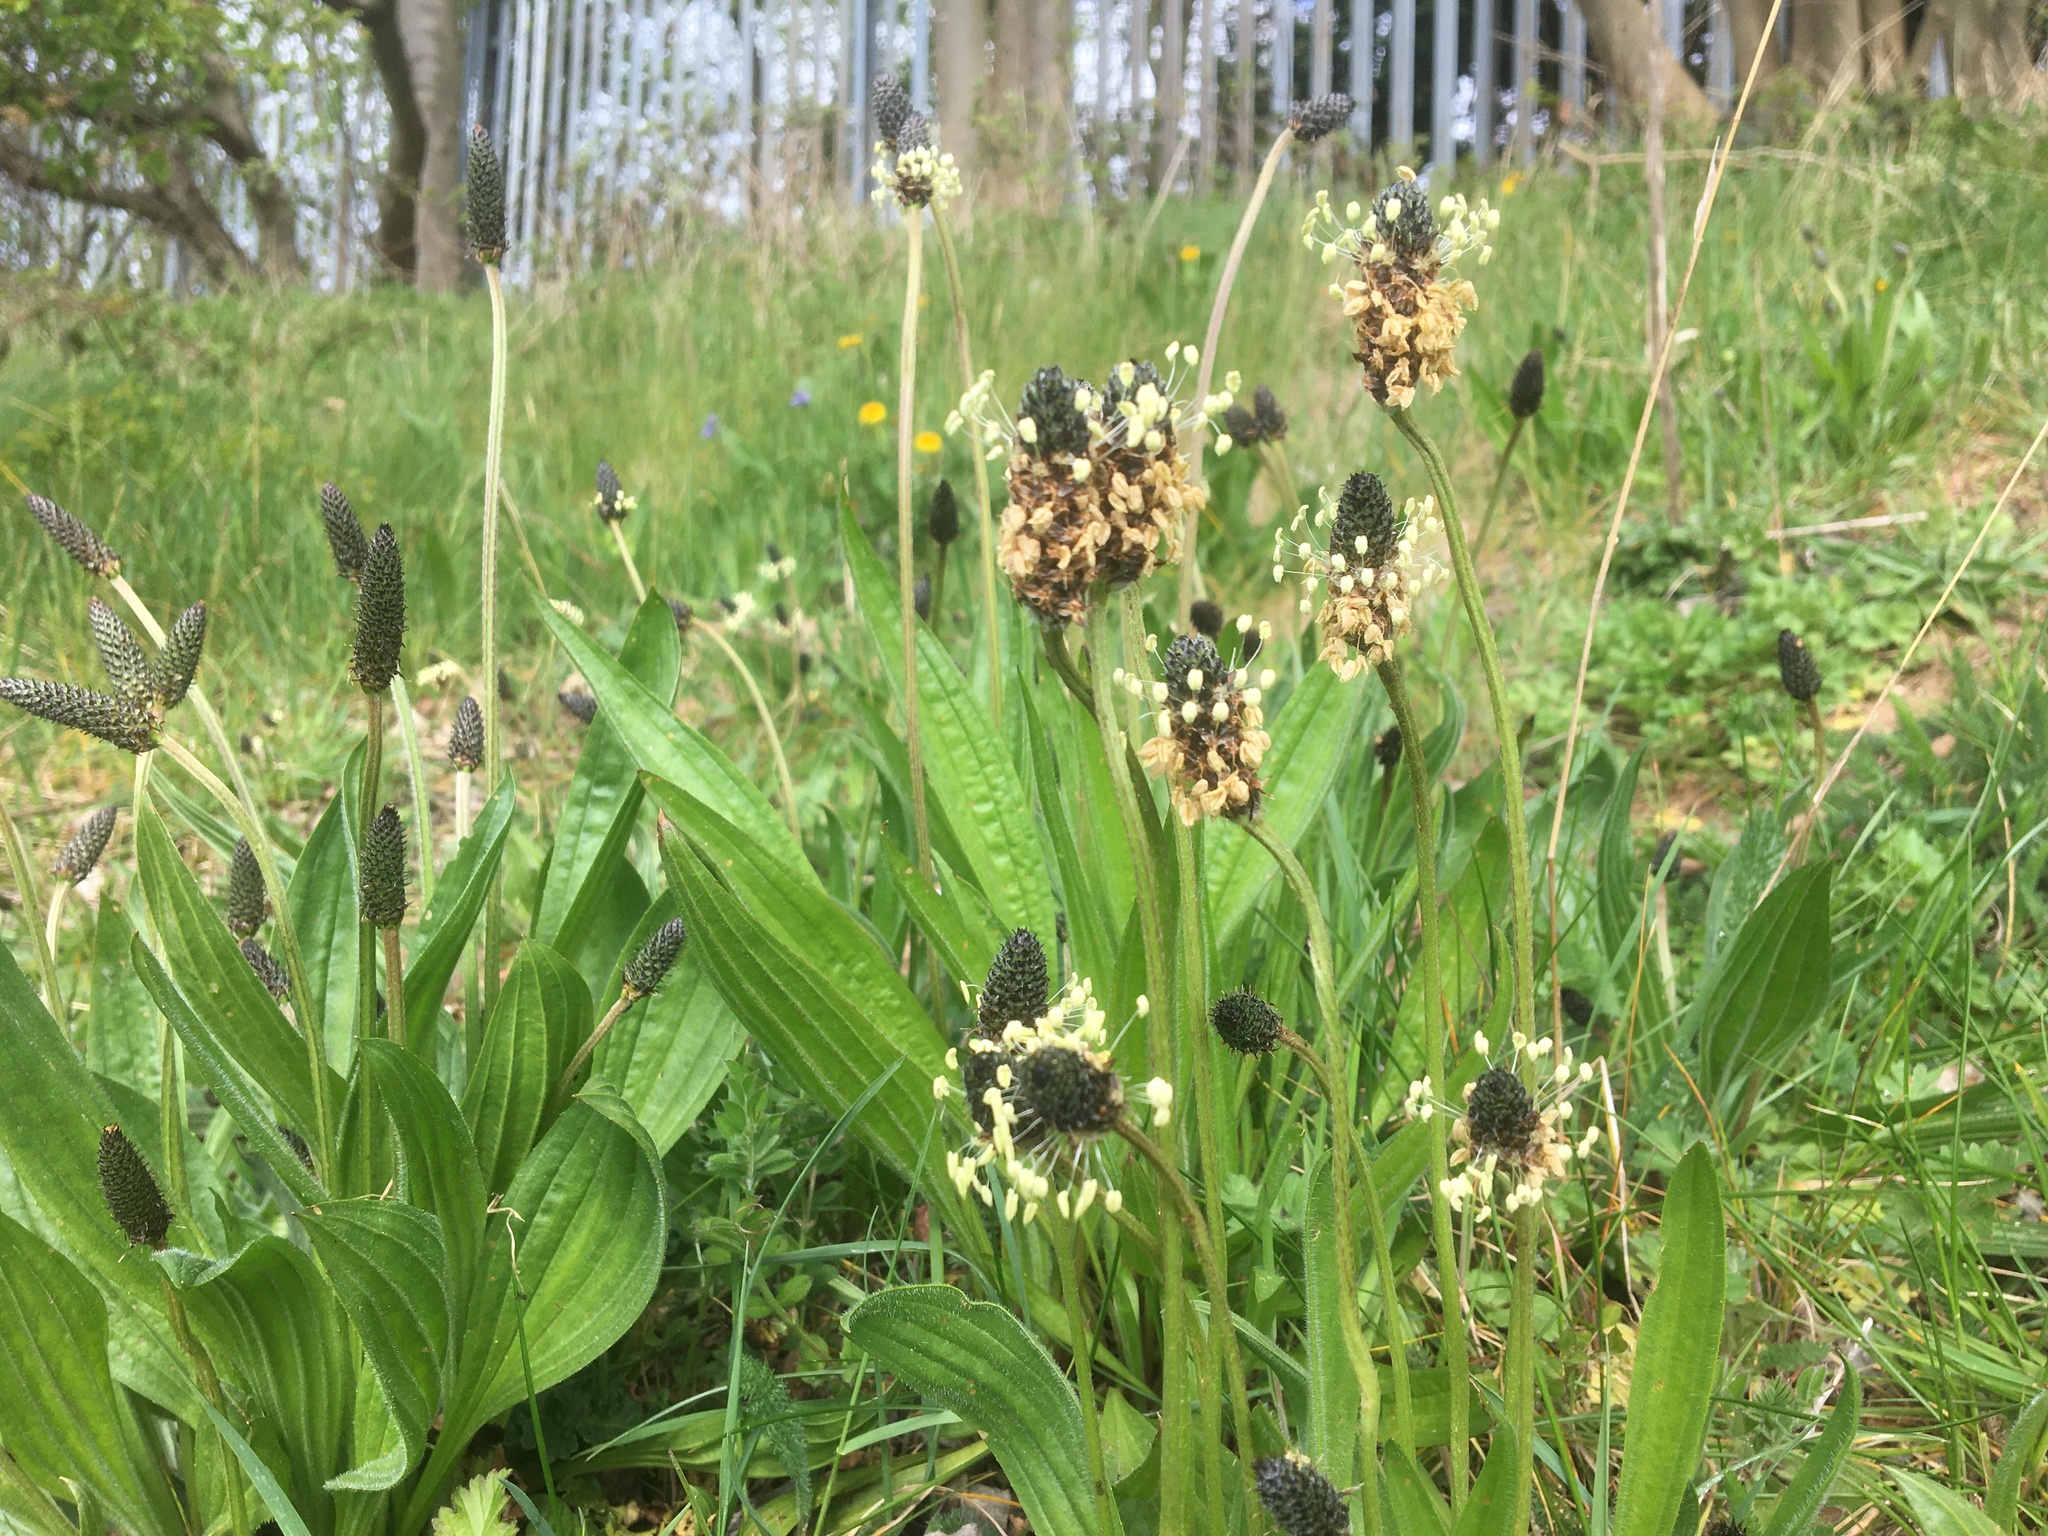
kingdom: Plantae
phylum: Tracheophyta
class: Magnoliopsida
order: Lamiales
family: Plantaginaceae
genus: Plantago
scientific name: Plantago lanceolata
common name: Ribwort plantain
